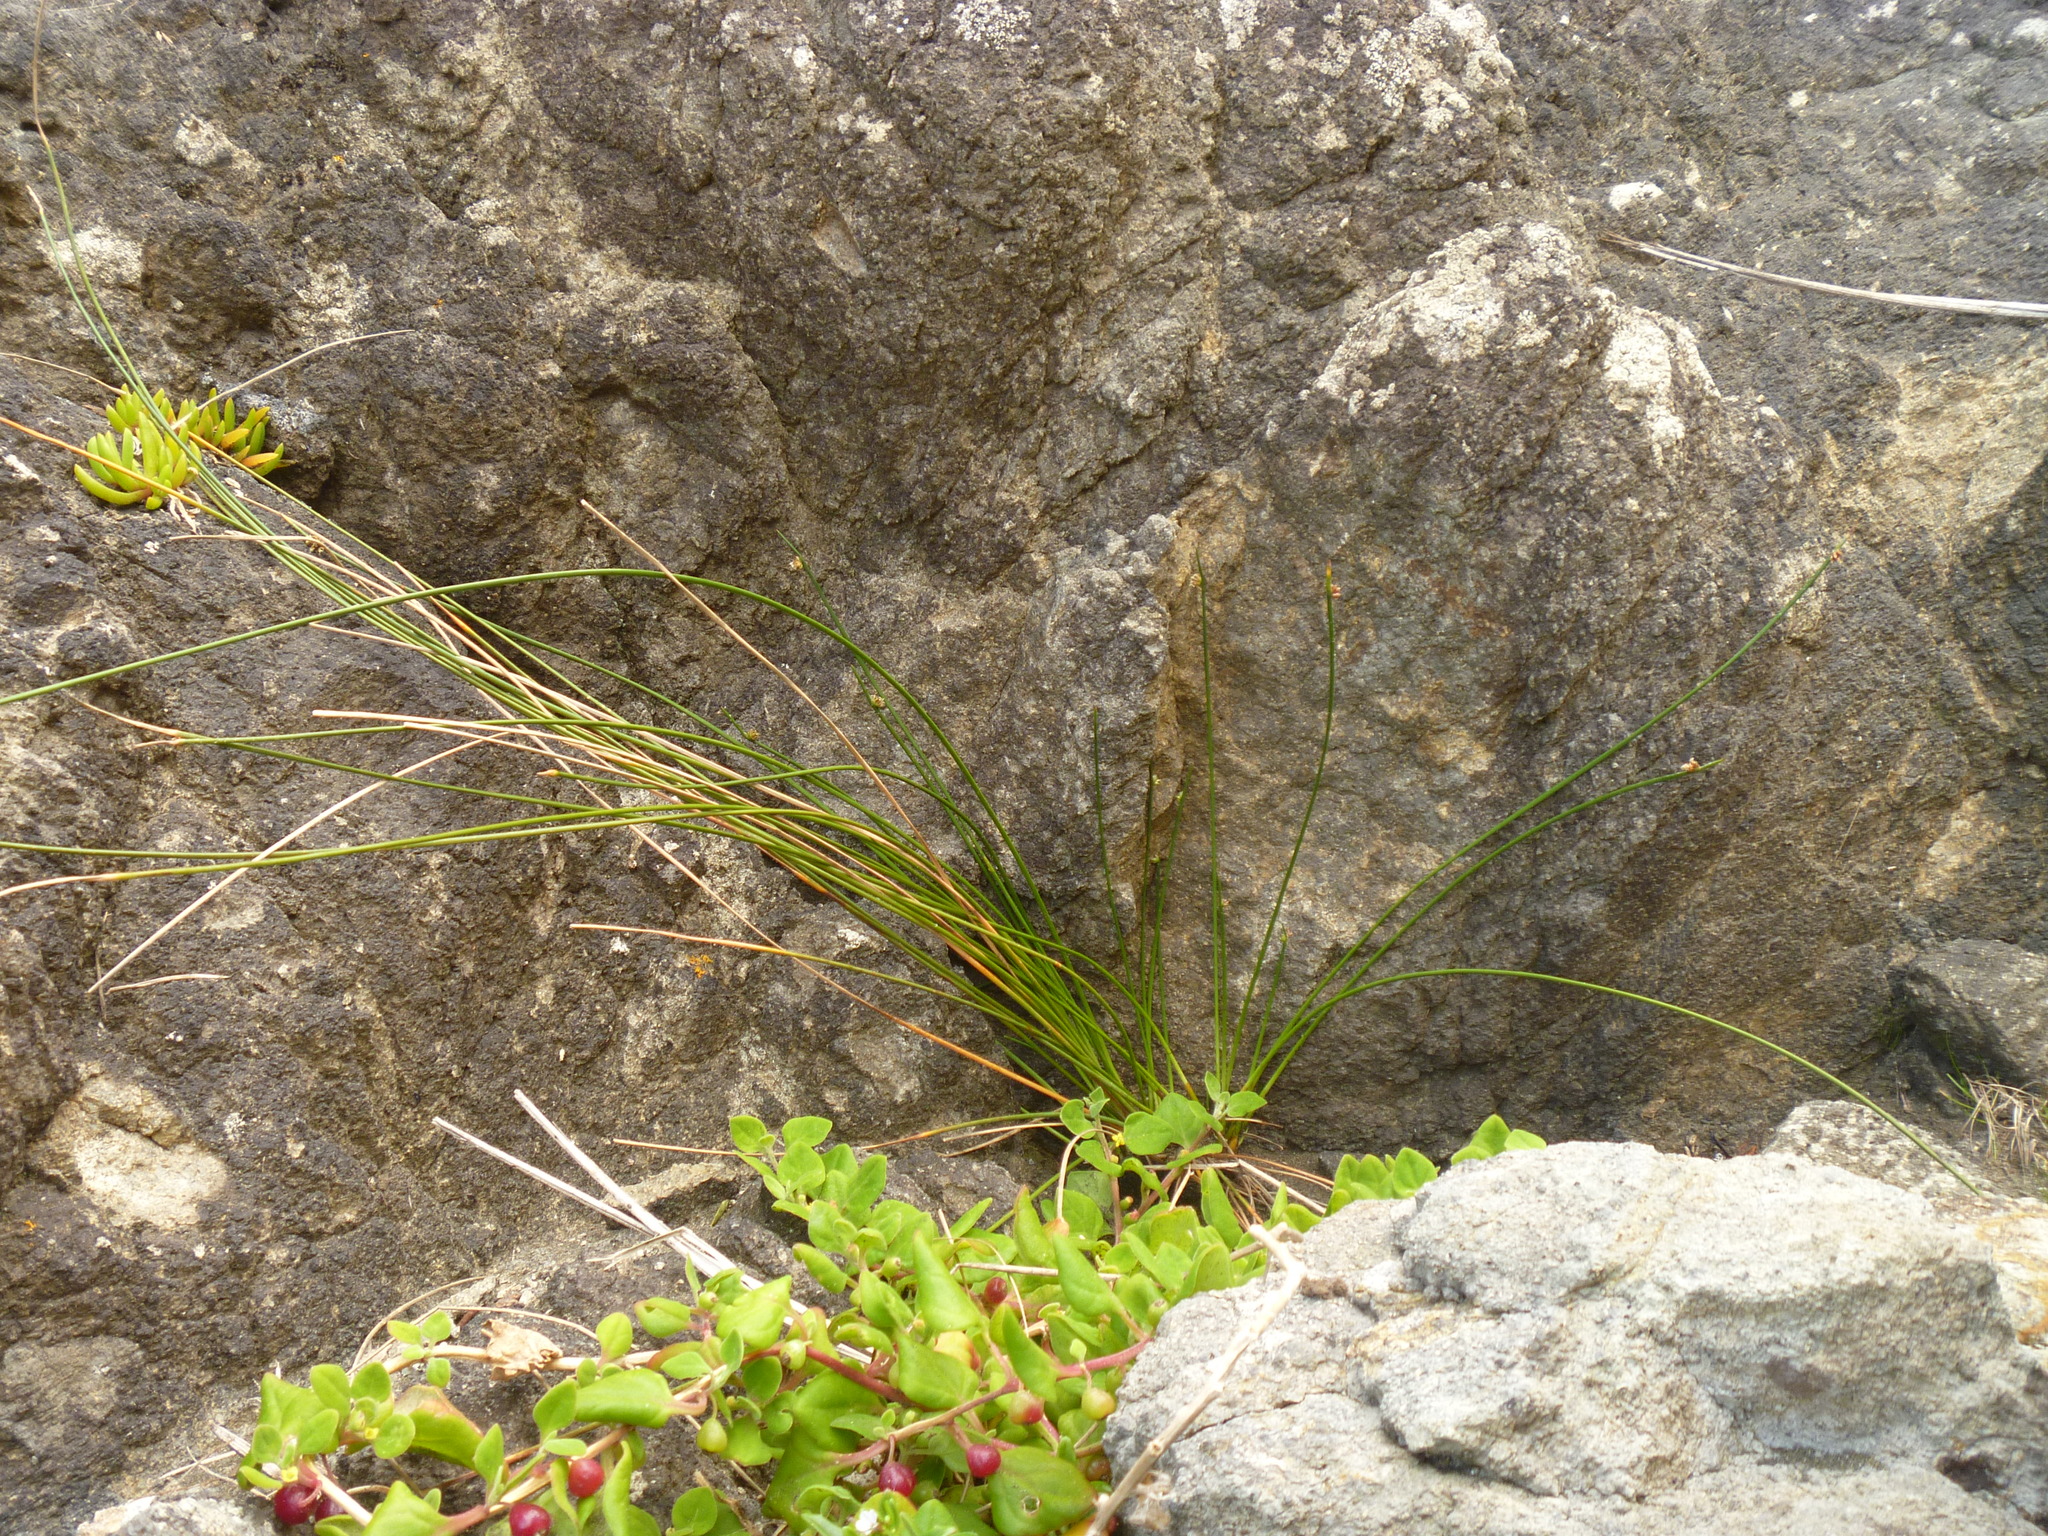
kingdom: Plantae
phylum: Tracheophyta
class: Liliopsida
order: Poales
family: Cyperaceae
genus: Ficinia
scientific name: Ficinia nodosa
